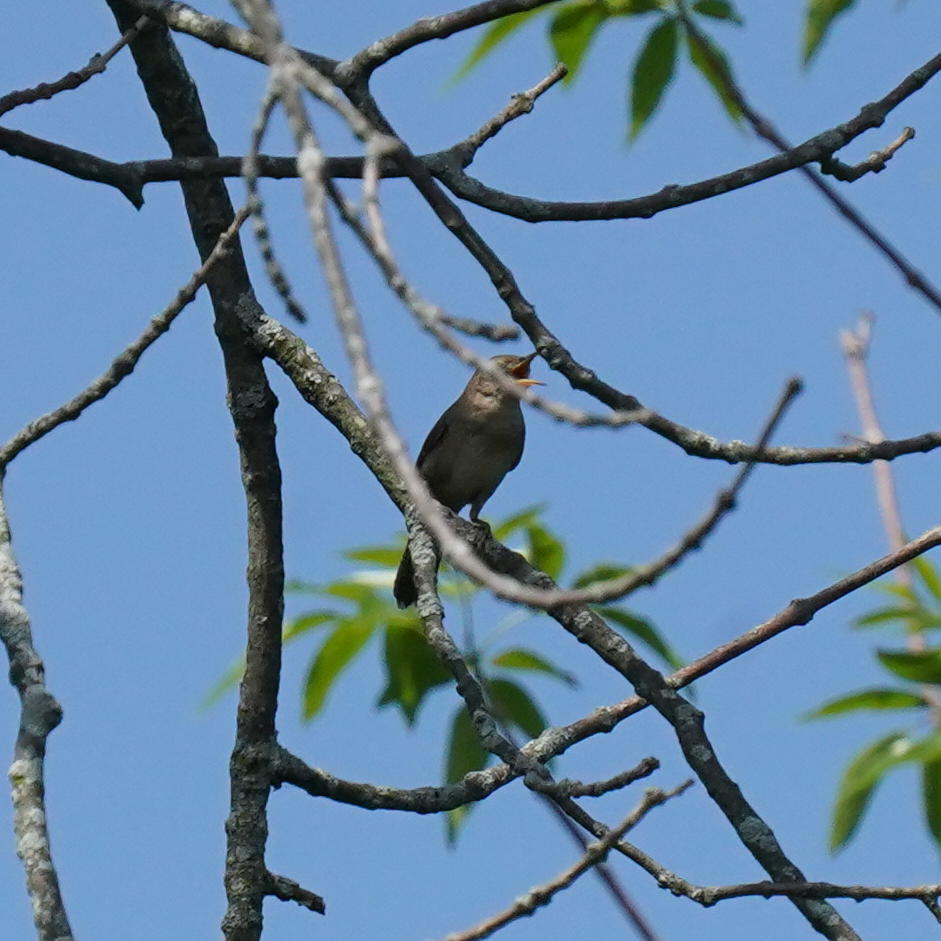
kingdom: Animalia
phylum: Chordata
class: Aves
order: Passeriformes
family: Troglodytidae
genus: Troglodytes
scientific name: Troglodytes aedon
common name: House wren
